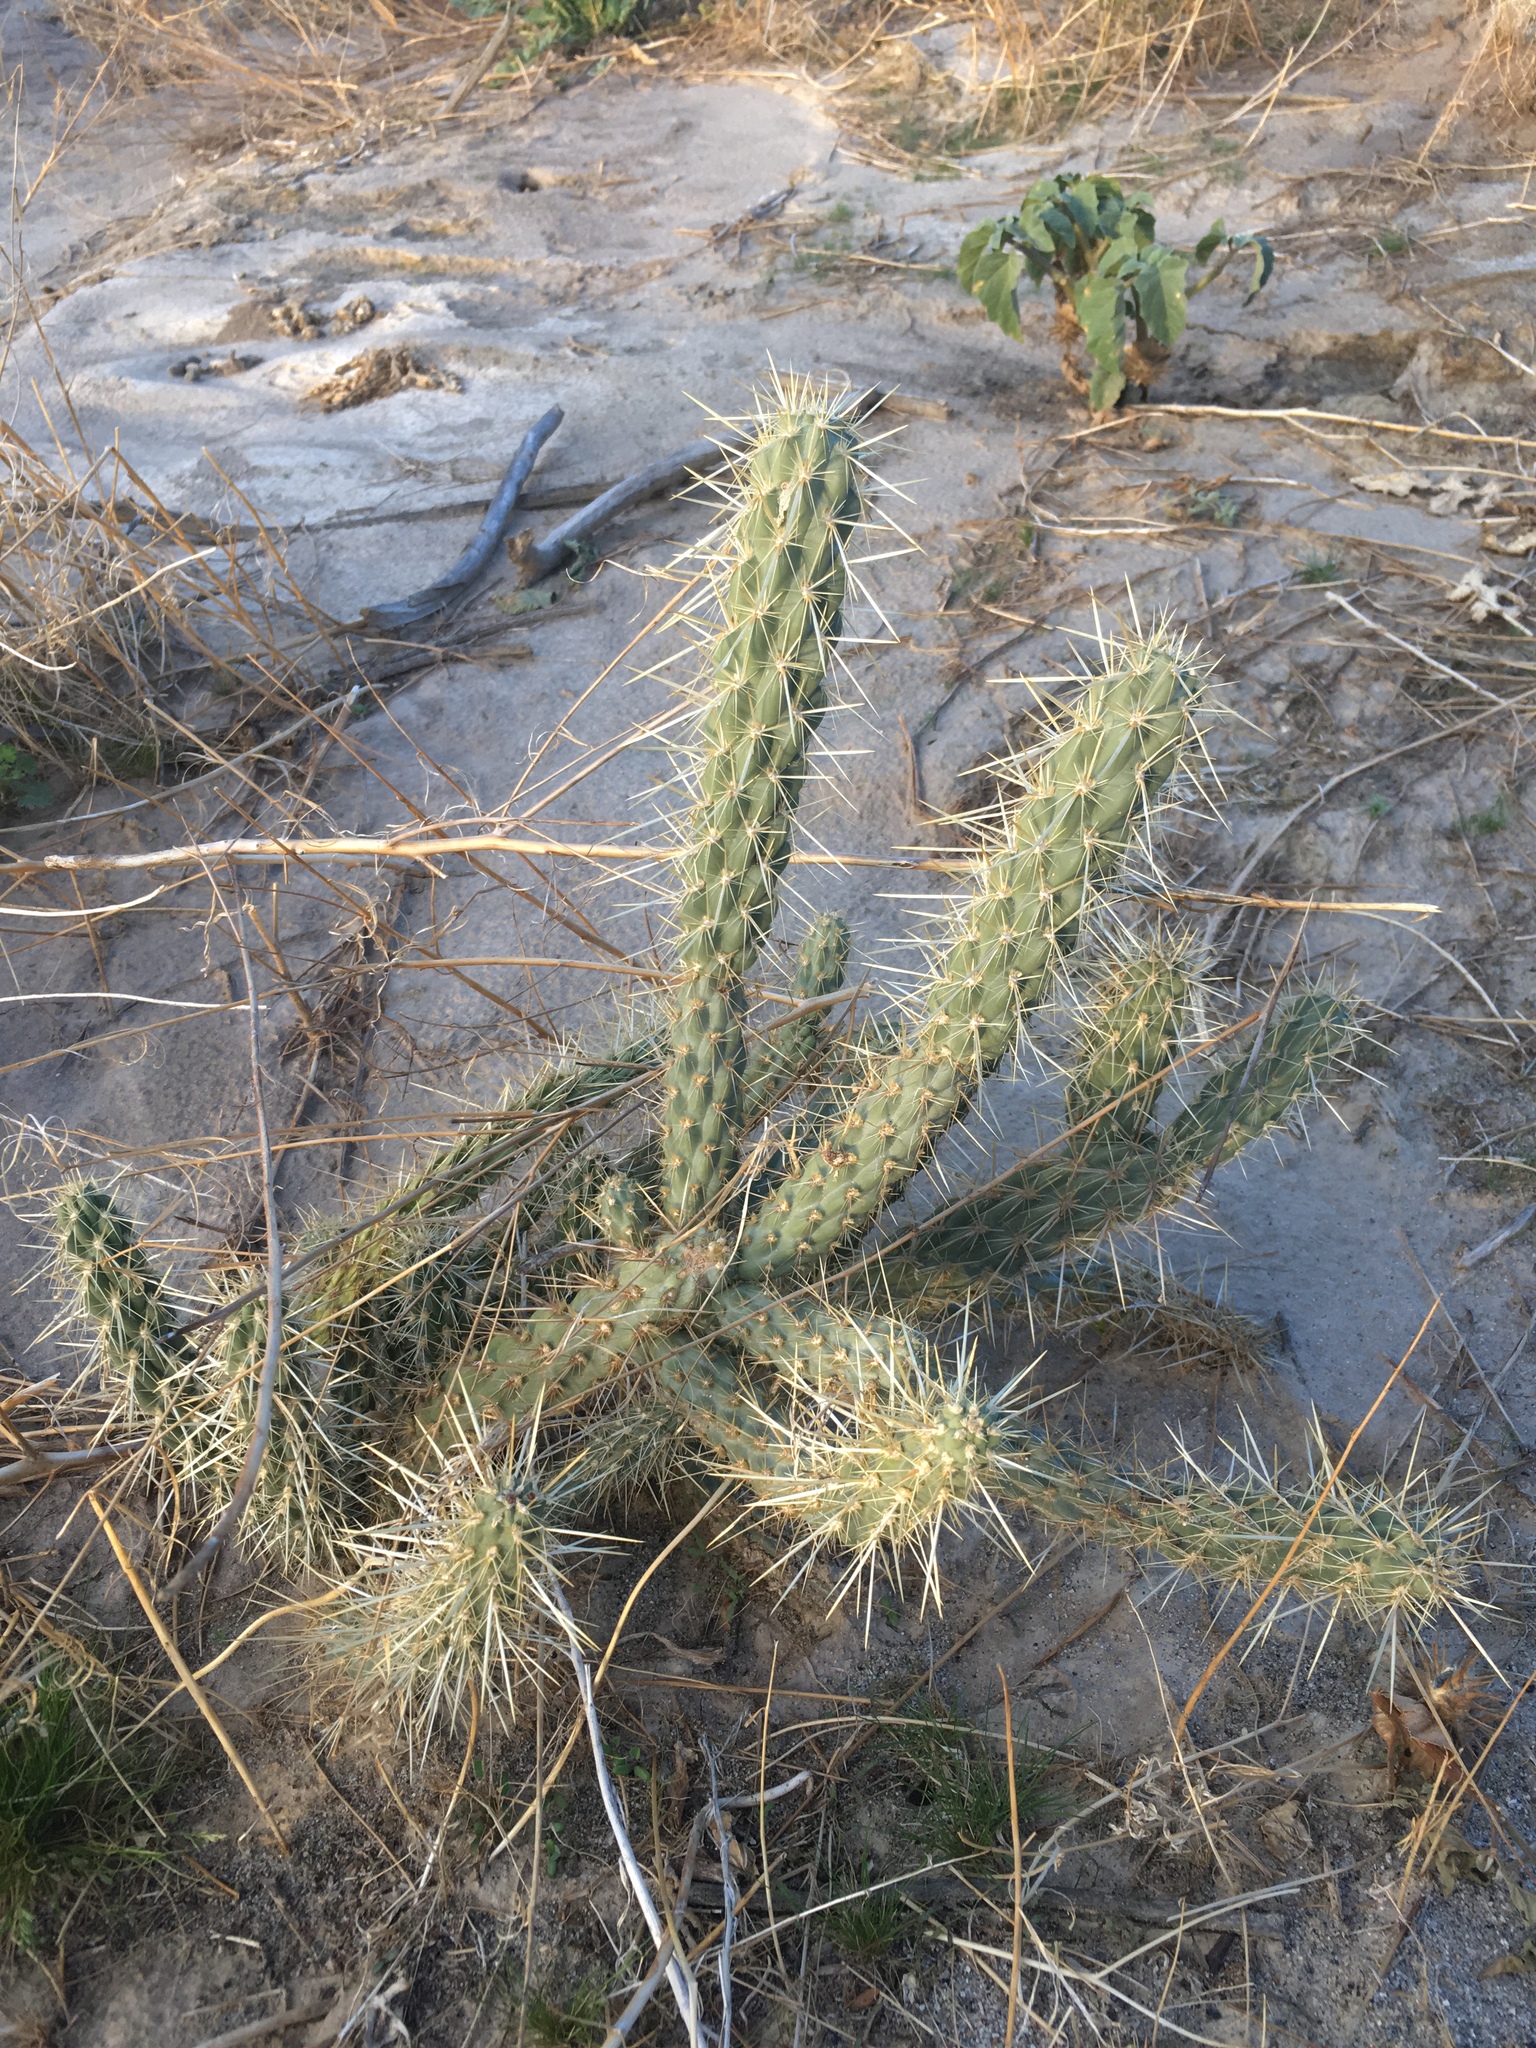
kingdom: Plantae
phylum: Tracheophyta
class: Magnoliopsida
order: Caryophyllales
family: Cactaceae
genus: Cylindropuntia
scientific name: Cylindropuntia ganderi
